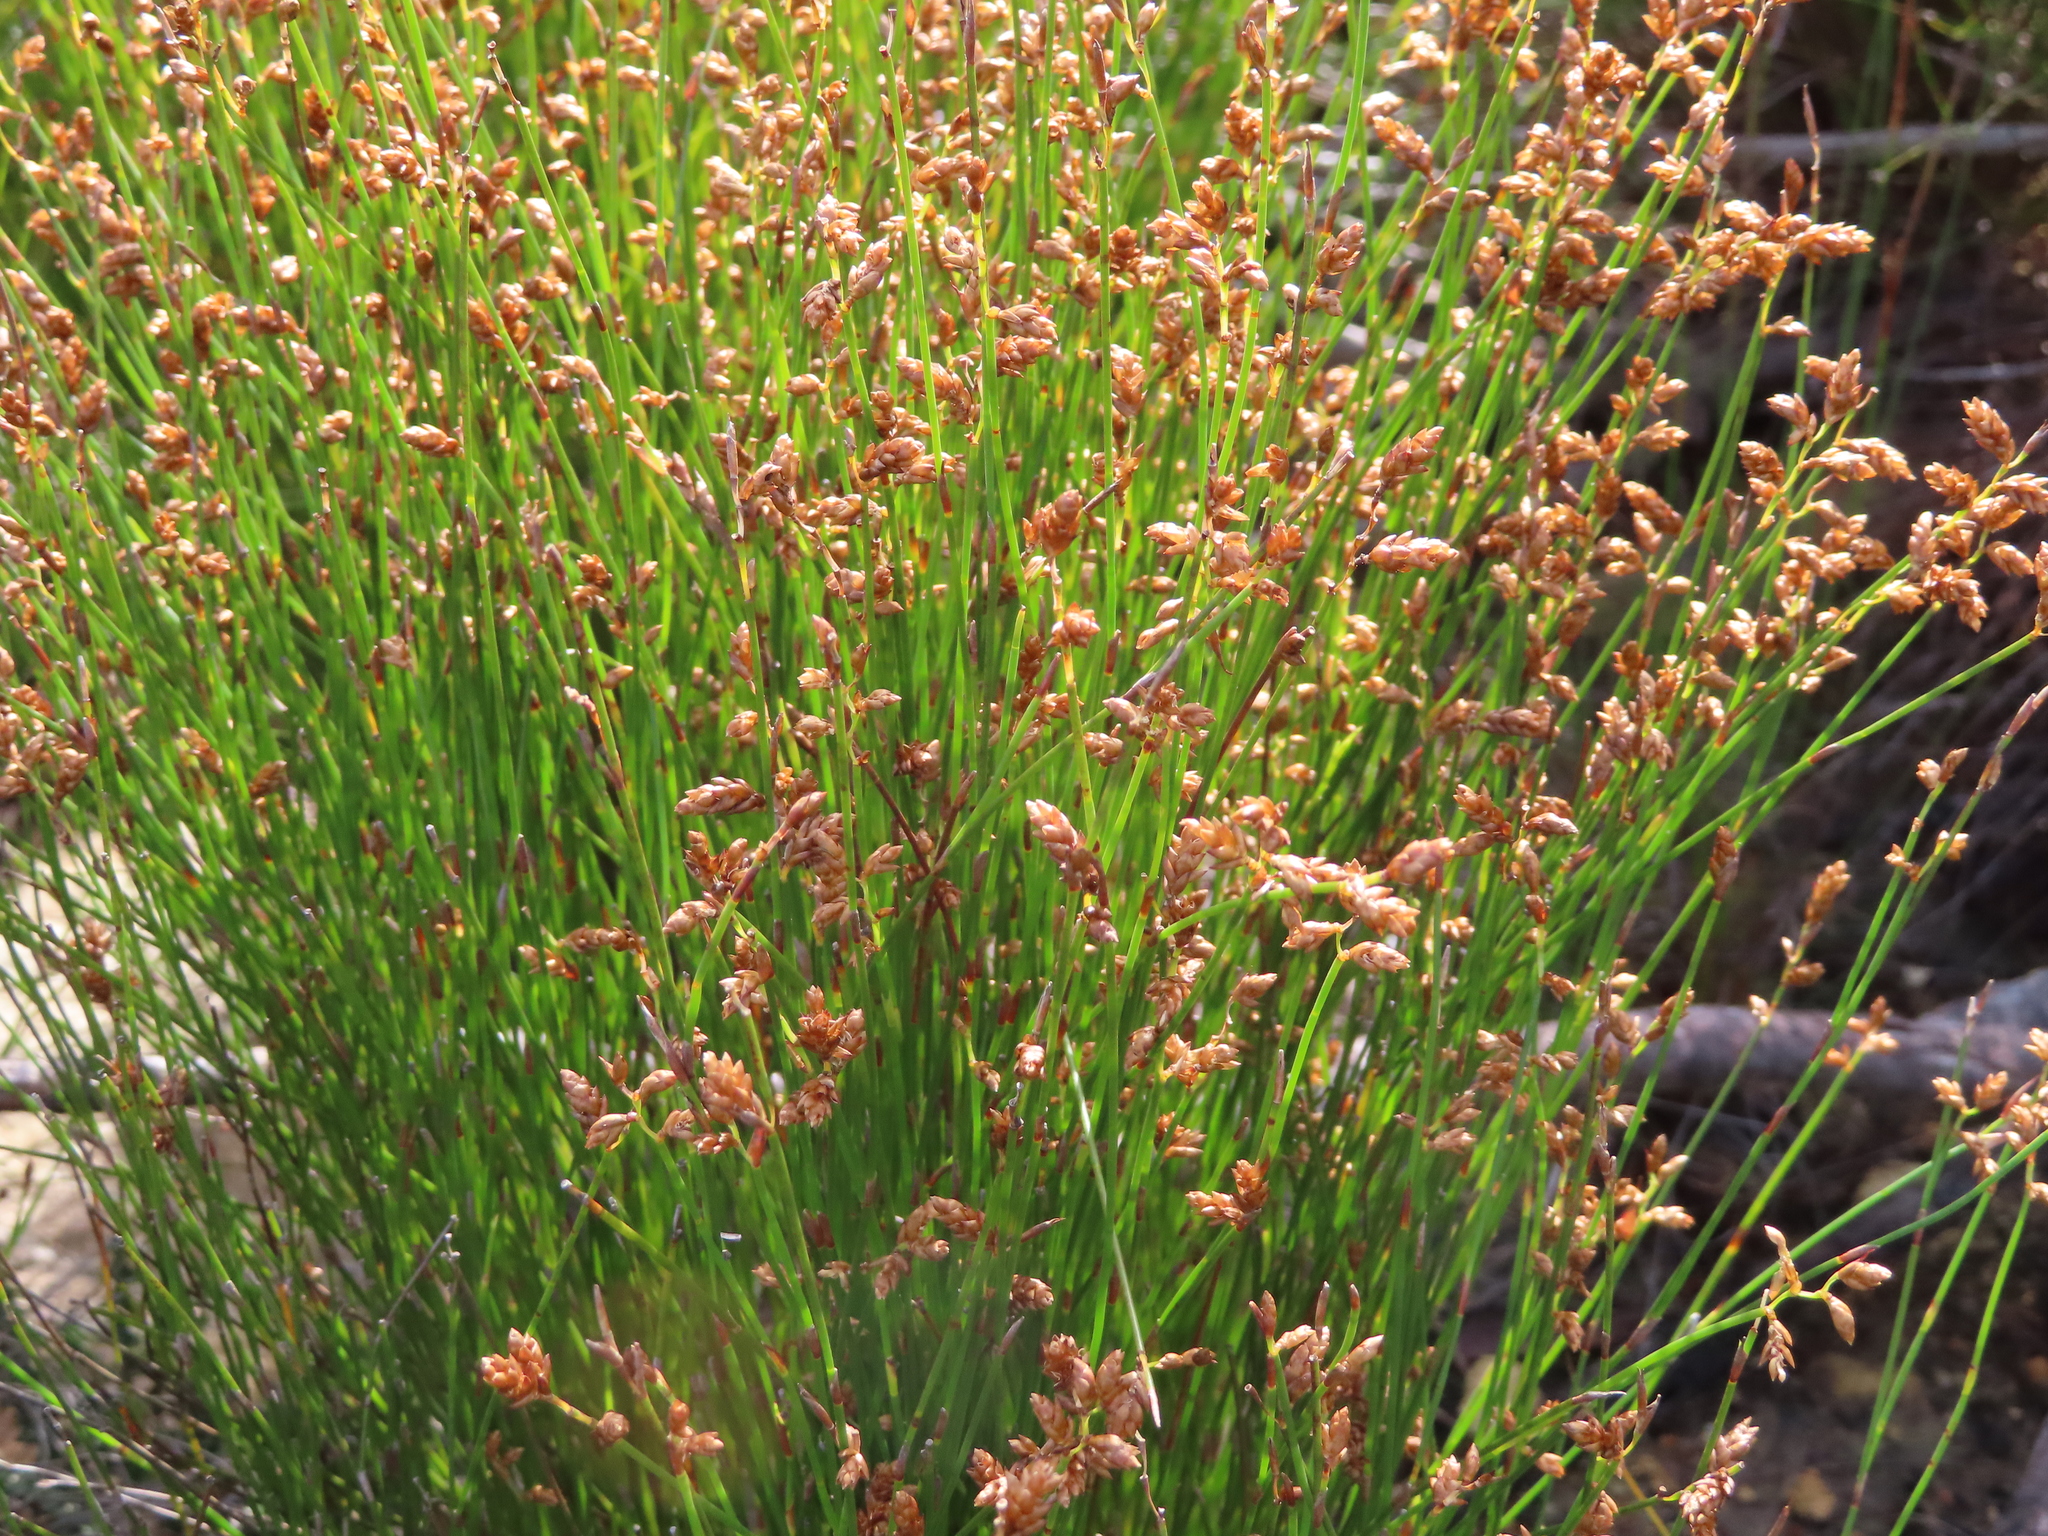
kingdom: Plantae
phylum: Tracheophyta
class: Liliopsida
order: Poales
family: Restionaceae
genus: Mastersiella
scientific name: Mastersiella digitata
